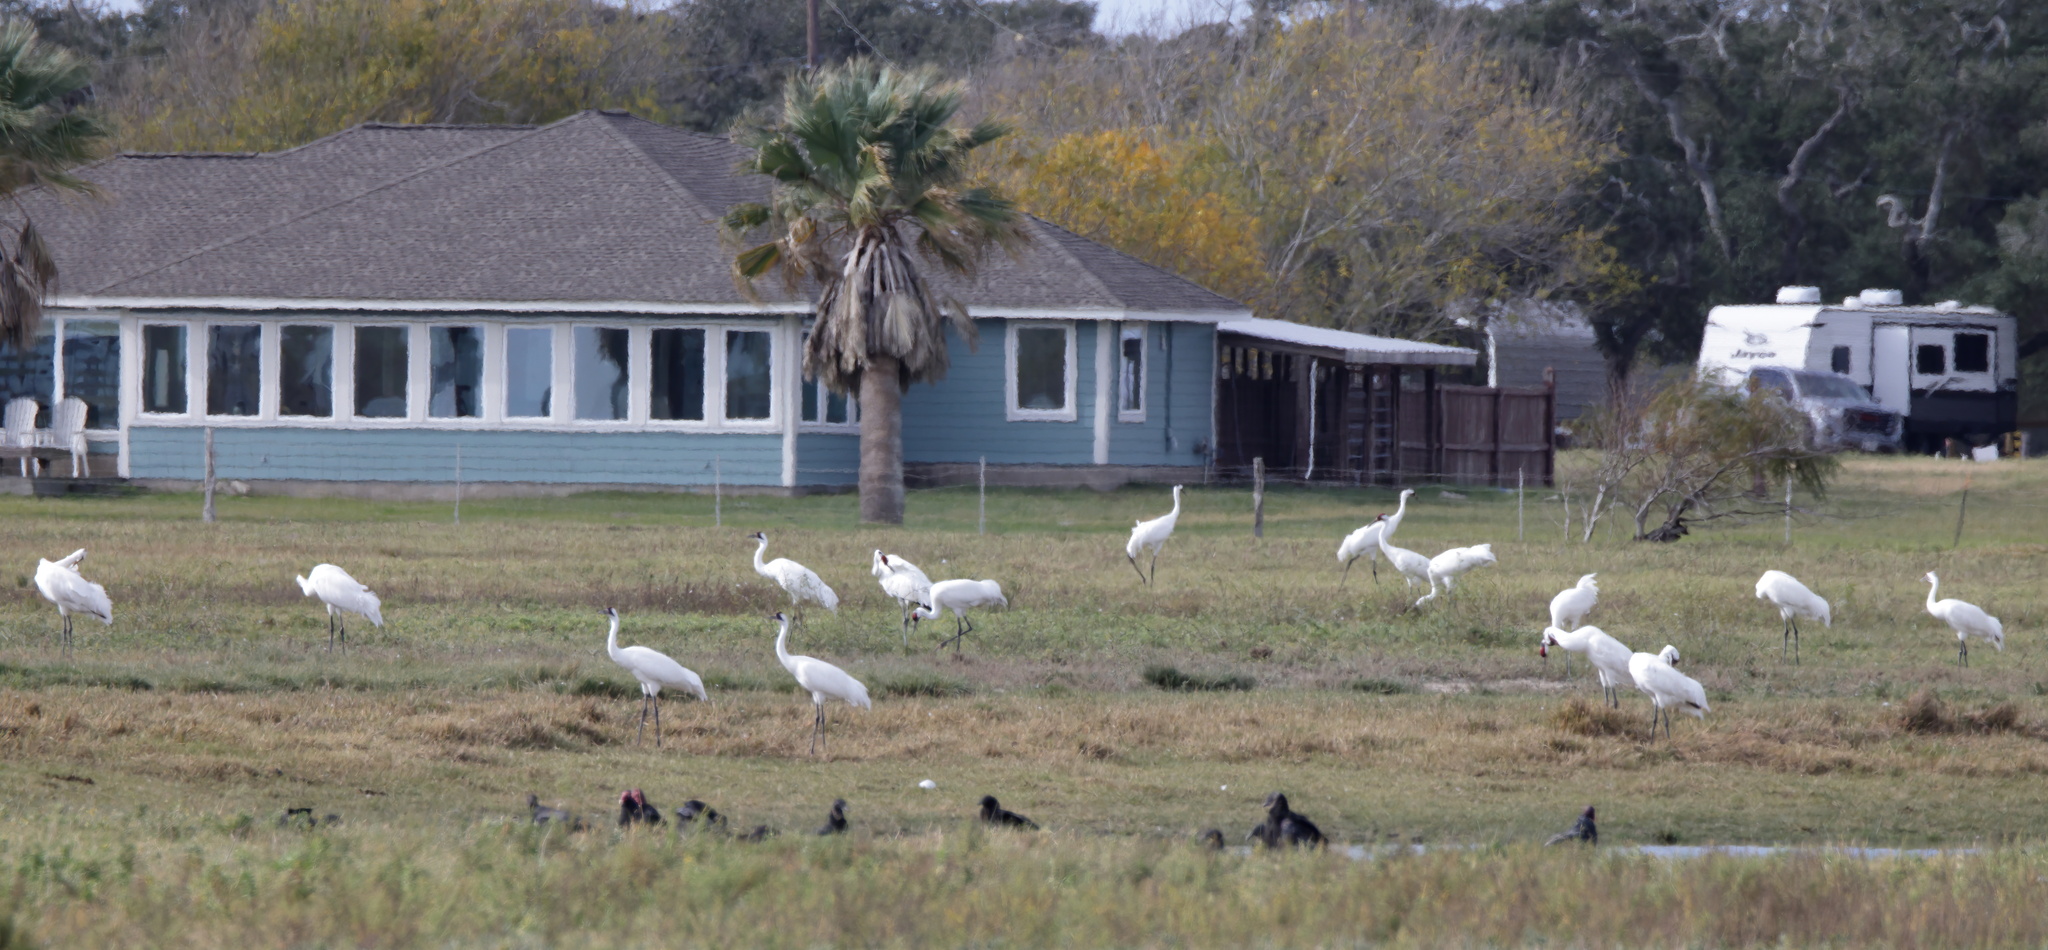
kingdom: Animalia
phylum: Chordata
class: Aves
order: Gruiformes
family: Gruidae
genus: Grus
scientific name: Grus americana
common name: Whooping crane
